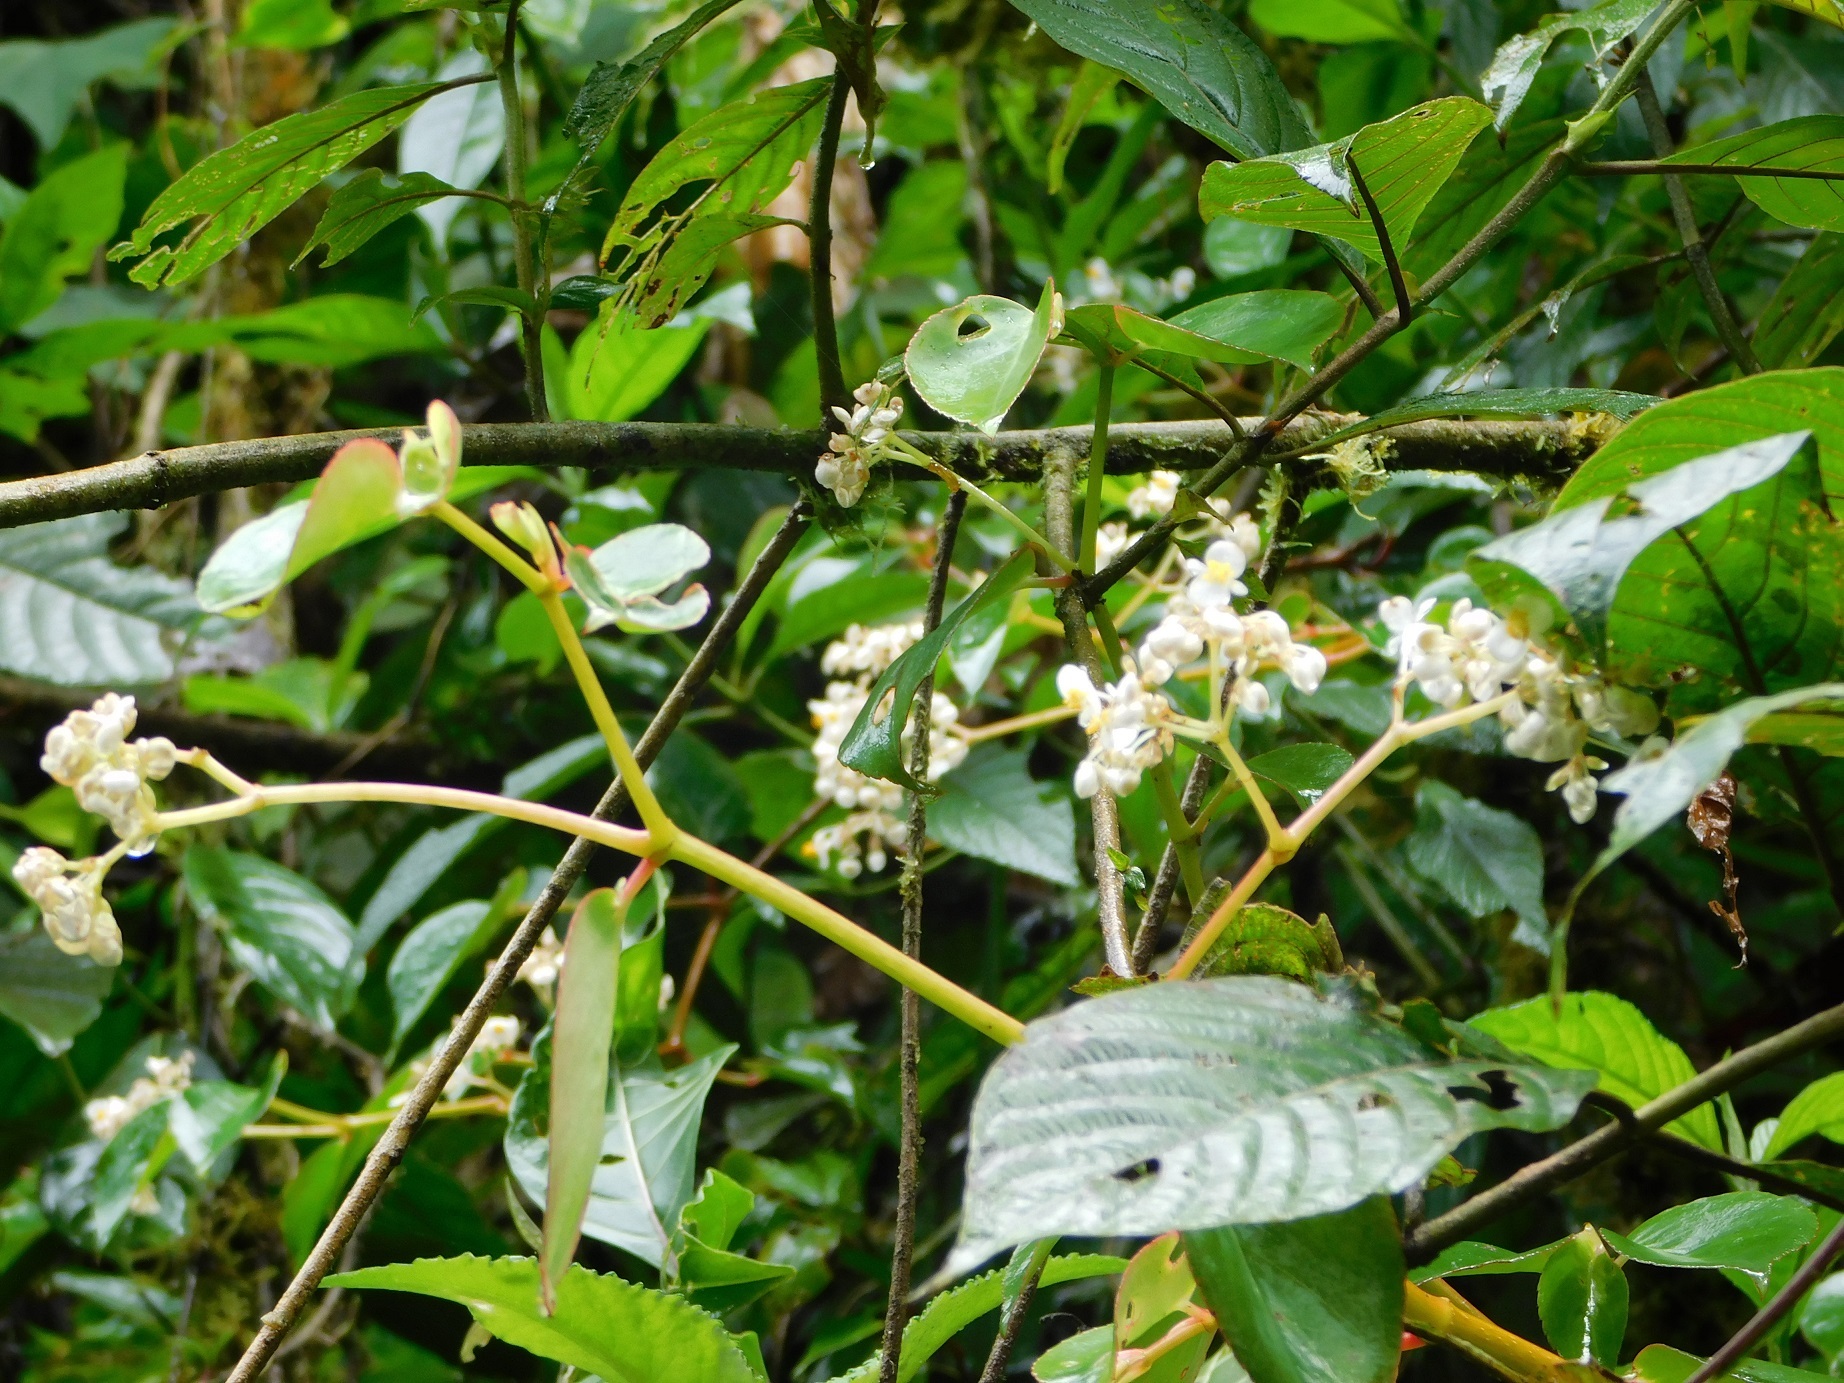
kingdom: Plantae
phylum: Tracheophyta
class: Magnoliopsida
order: Cucurbitales
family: Begoniaceae
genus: Begonia
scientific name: Begonia holtonis
